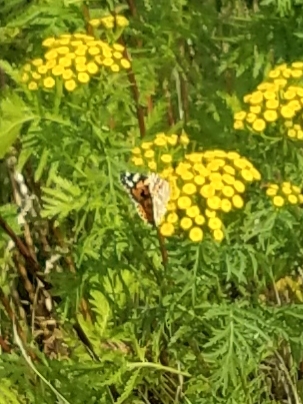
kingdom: Animalia
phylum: Arthropoda
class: Insecta
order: Lepidoptera
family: Nymphalidae
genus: Vanessa
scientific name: Vanessa cardui
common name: Painted lady
